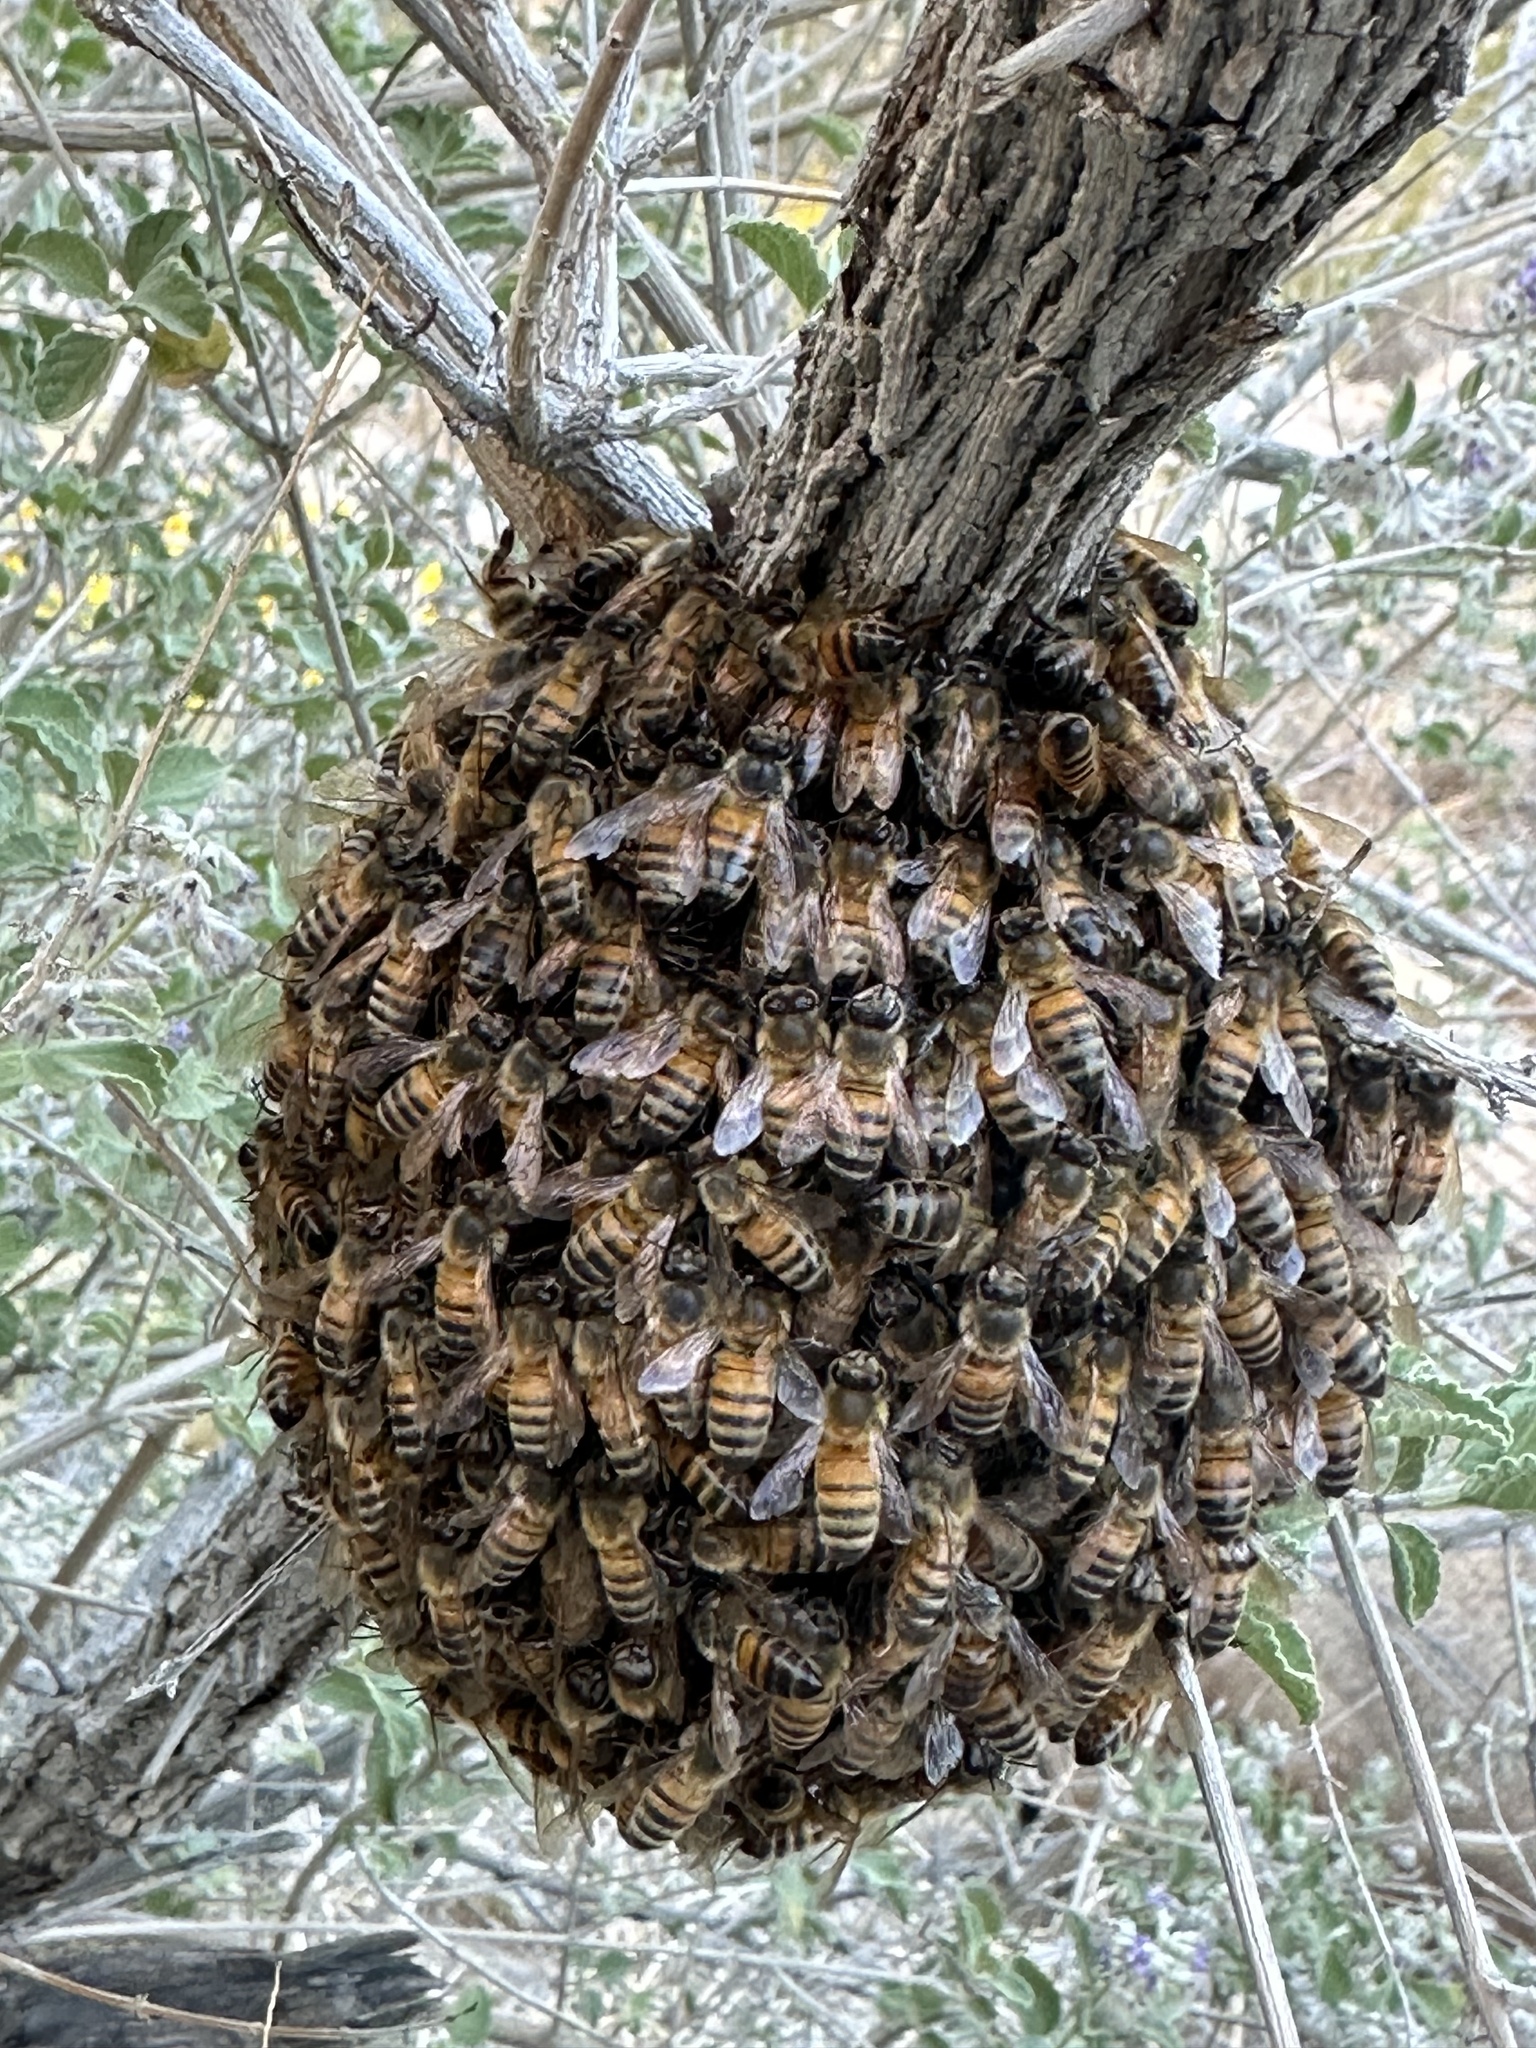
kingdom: Animalia
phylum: Arthropoda
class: Insecta
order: Hymenoptera
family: Apidae
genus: Apis
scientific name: Apis mellifera
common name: Honey bee
